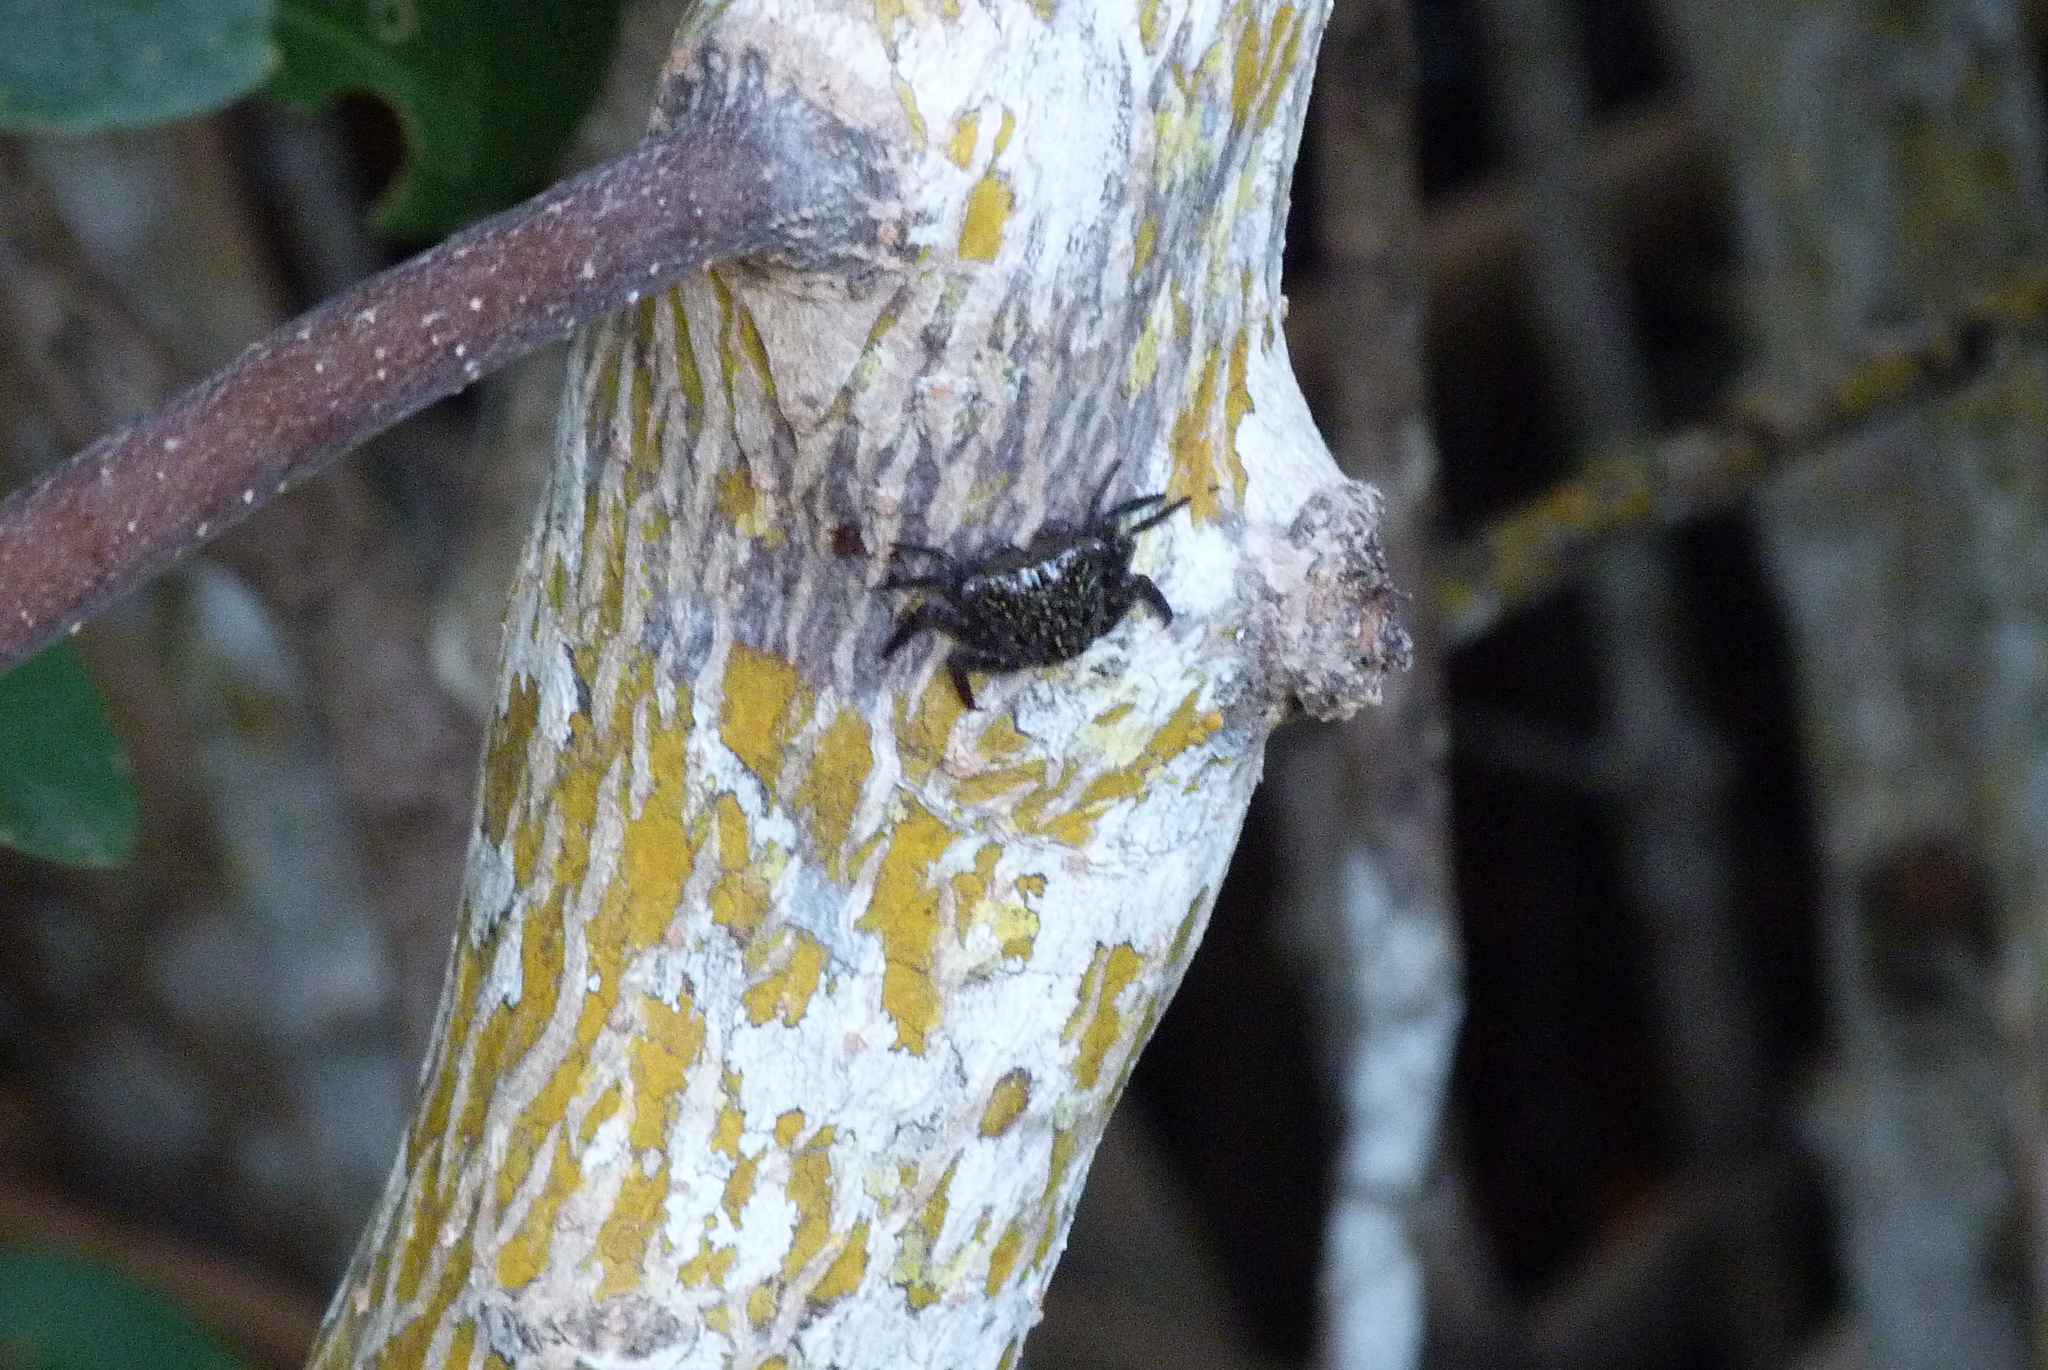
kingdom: Animalia
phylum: Arthropoda
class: Malacostraca
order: Decapoda
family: Sesarmidae
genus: Aratus
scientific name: Aratus pisonii
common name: Mangrove crab
